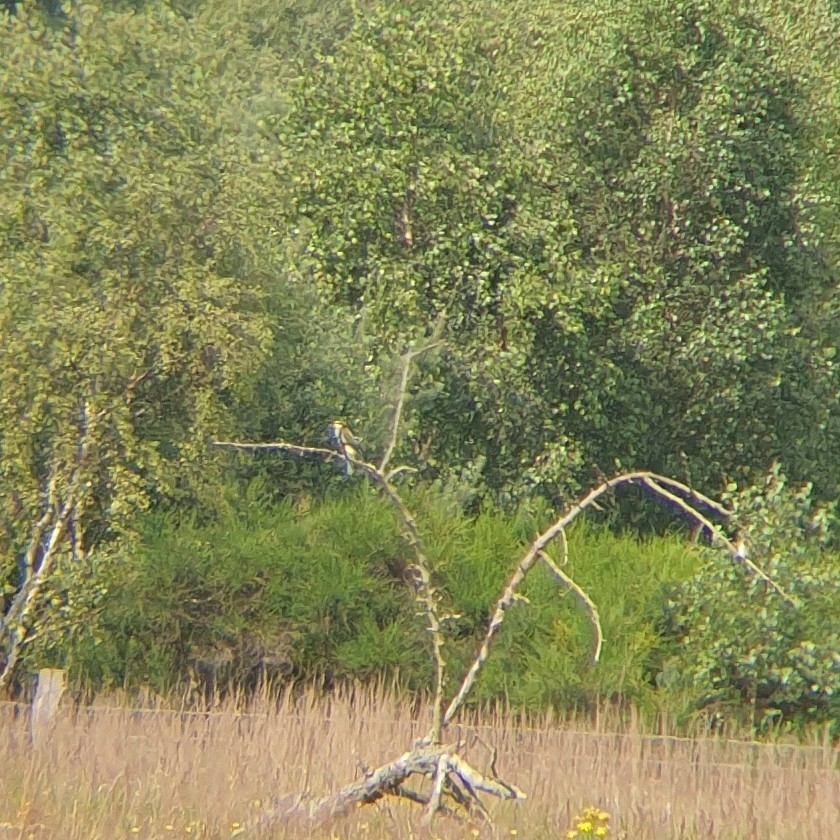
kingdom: Animalia
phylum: Chordata
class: Aves
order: Coraciiformes
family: Meropidae
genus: Merops
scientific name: Merops apiaster
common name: European bee-eater
